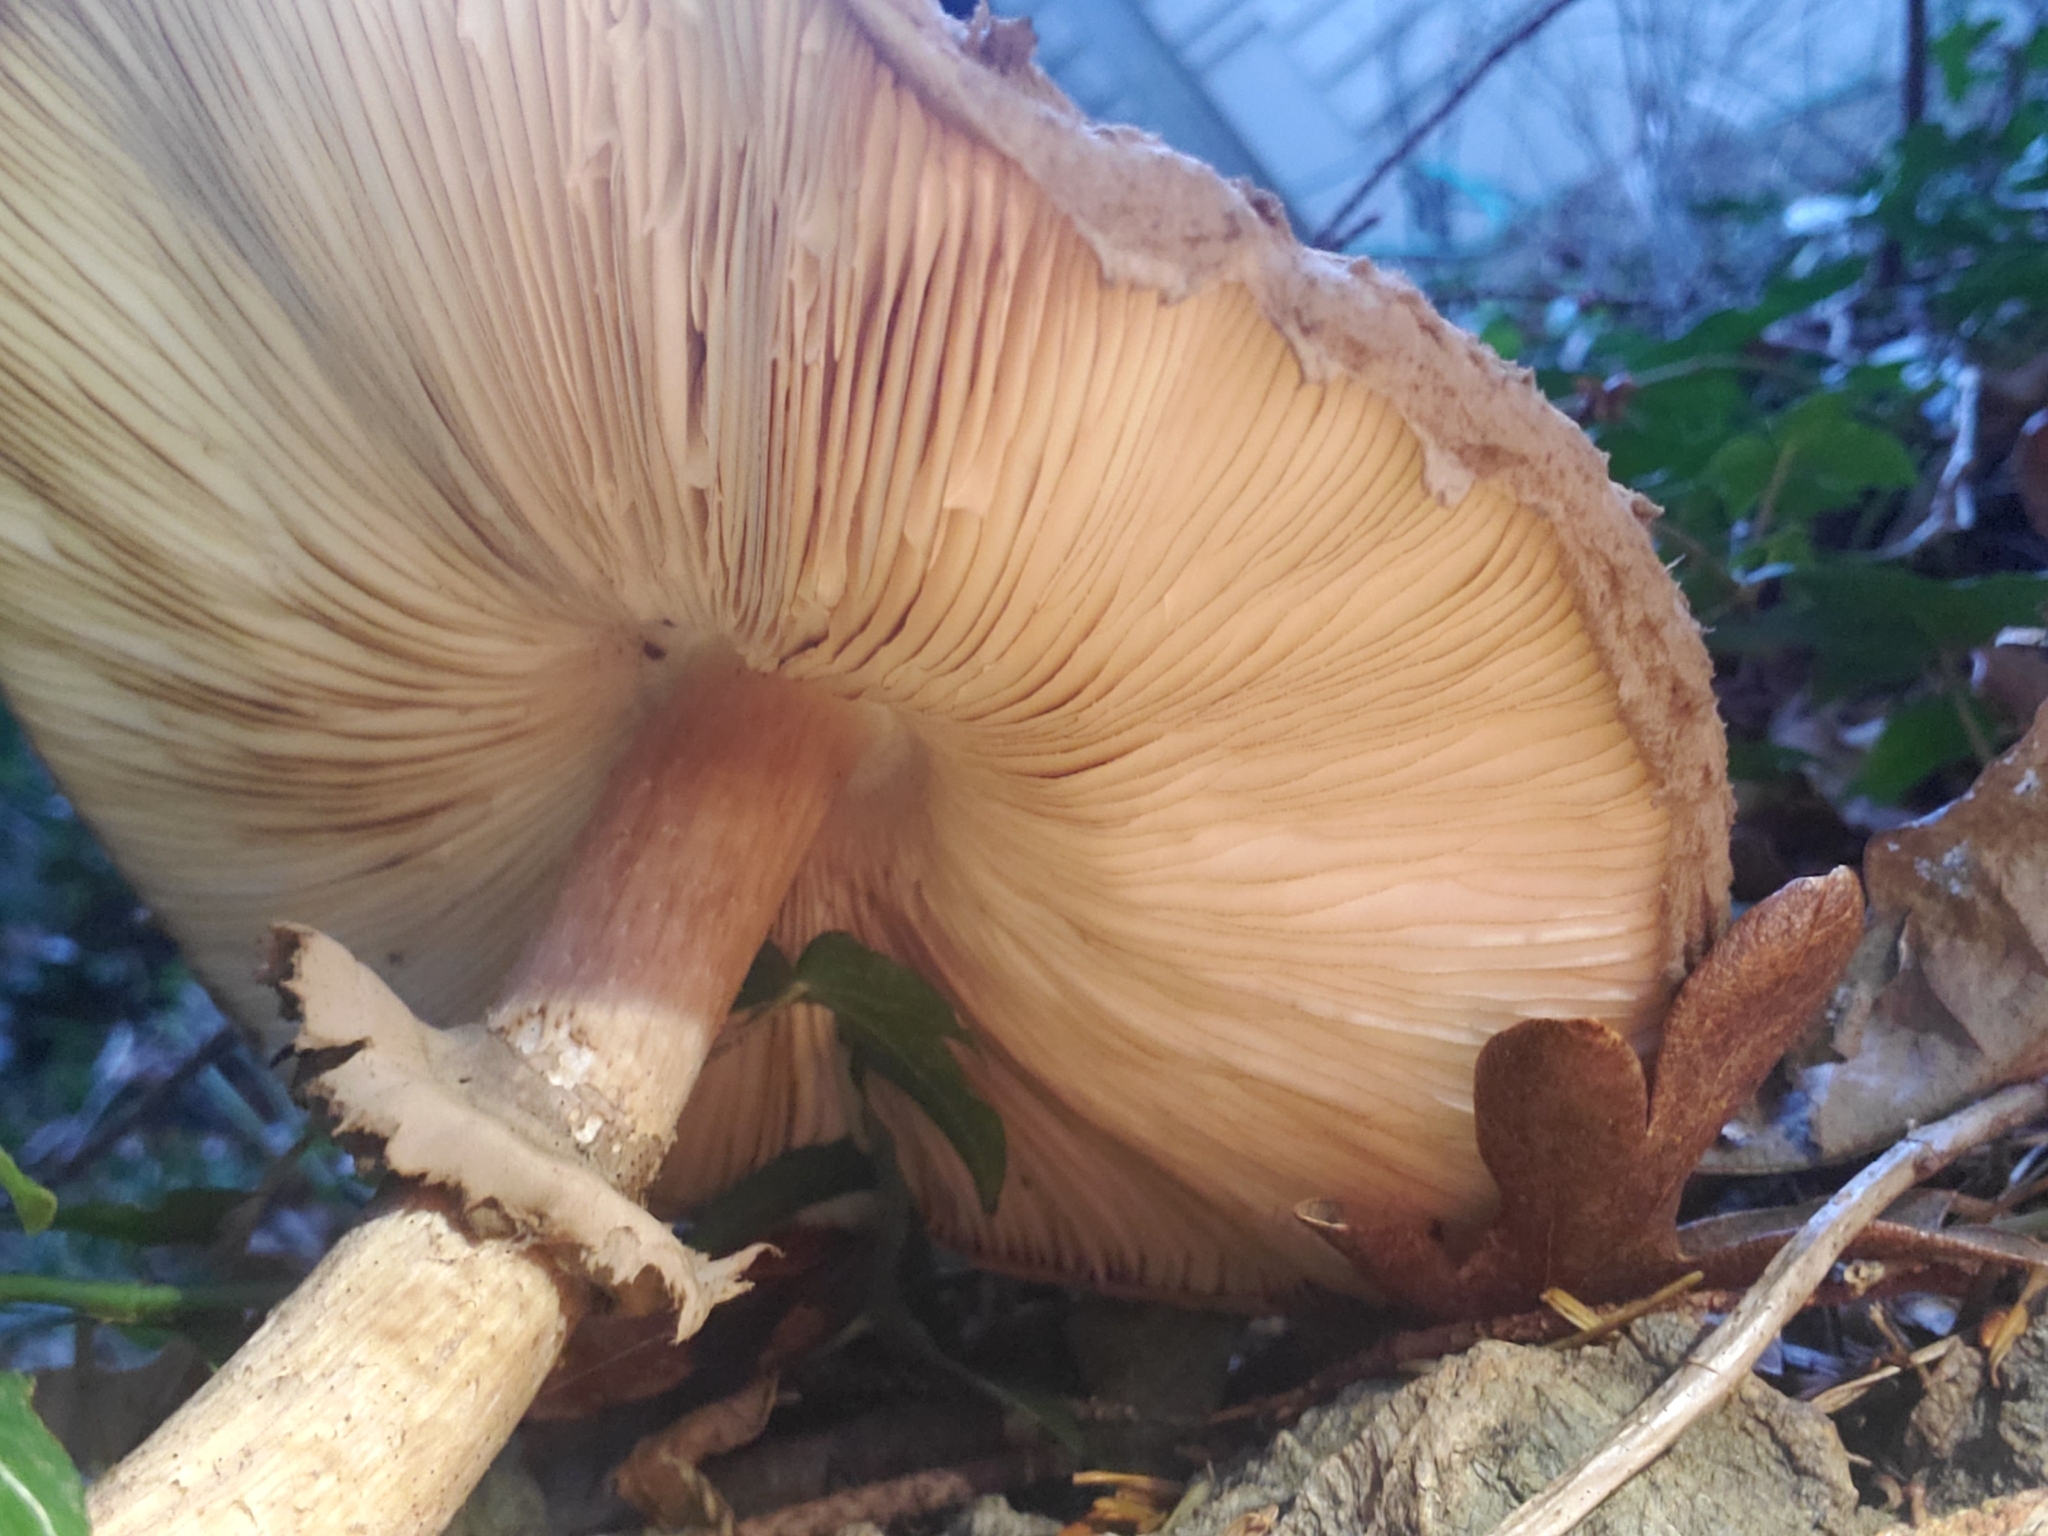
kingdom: Fungi
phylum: Basidiomycota
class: Agaricomycetes
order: Agaricales
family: Agaricaceae
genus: Chlorophyllum
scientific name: Chlorophyllum olivieri
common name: Conifer parasol
